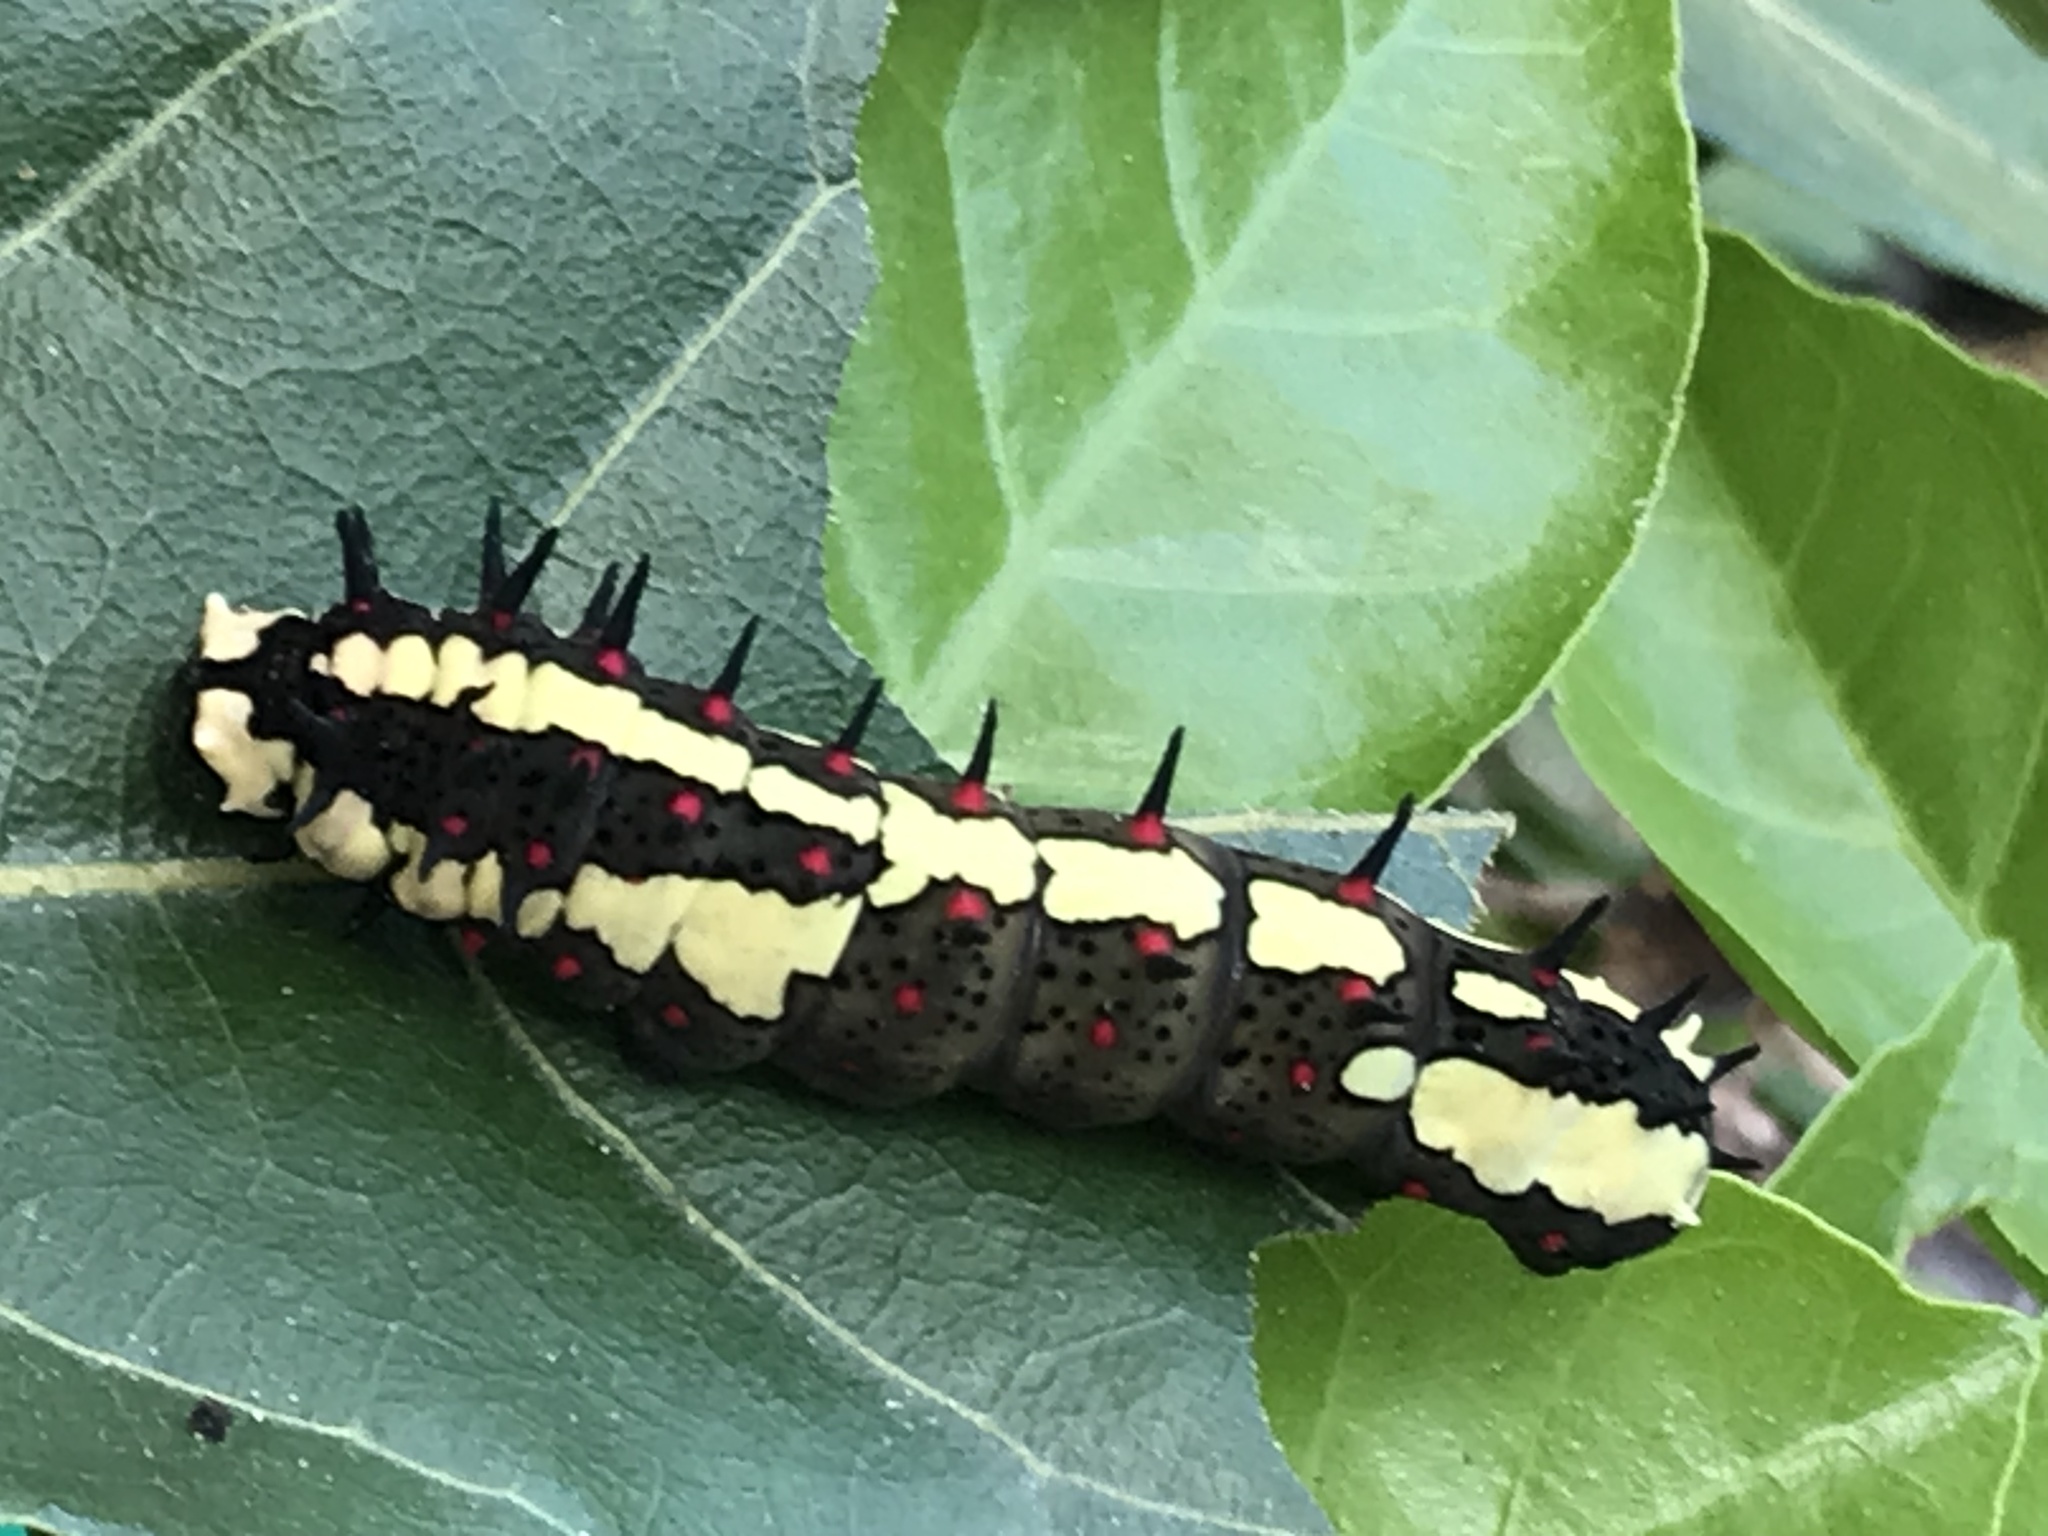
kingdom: Animalia
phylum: Arthropoda
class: Insecta
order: Lepidoptera
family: Papilionidae
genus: Chilasa
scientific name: Chilasa clytia
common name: Common mime
